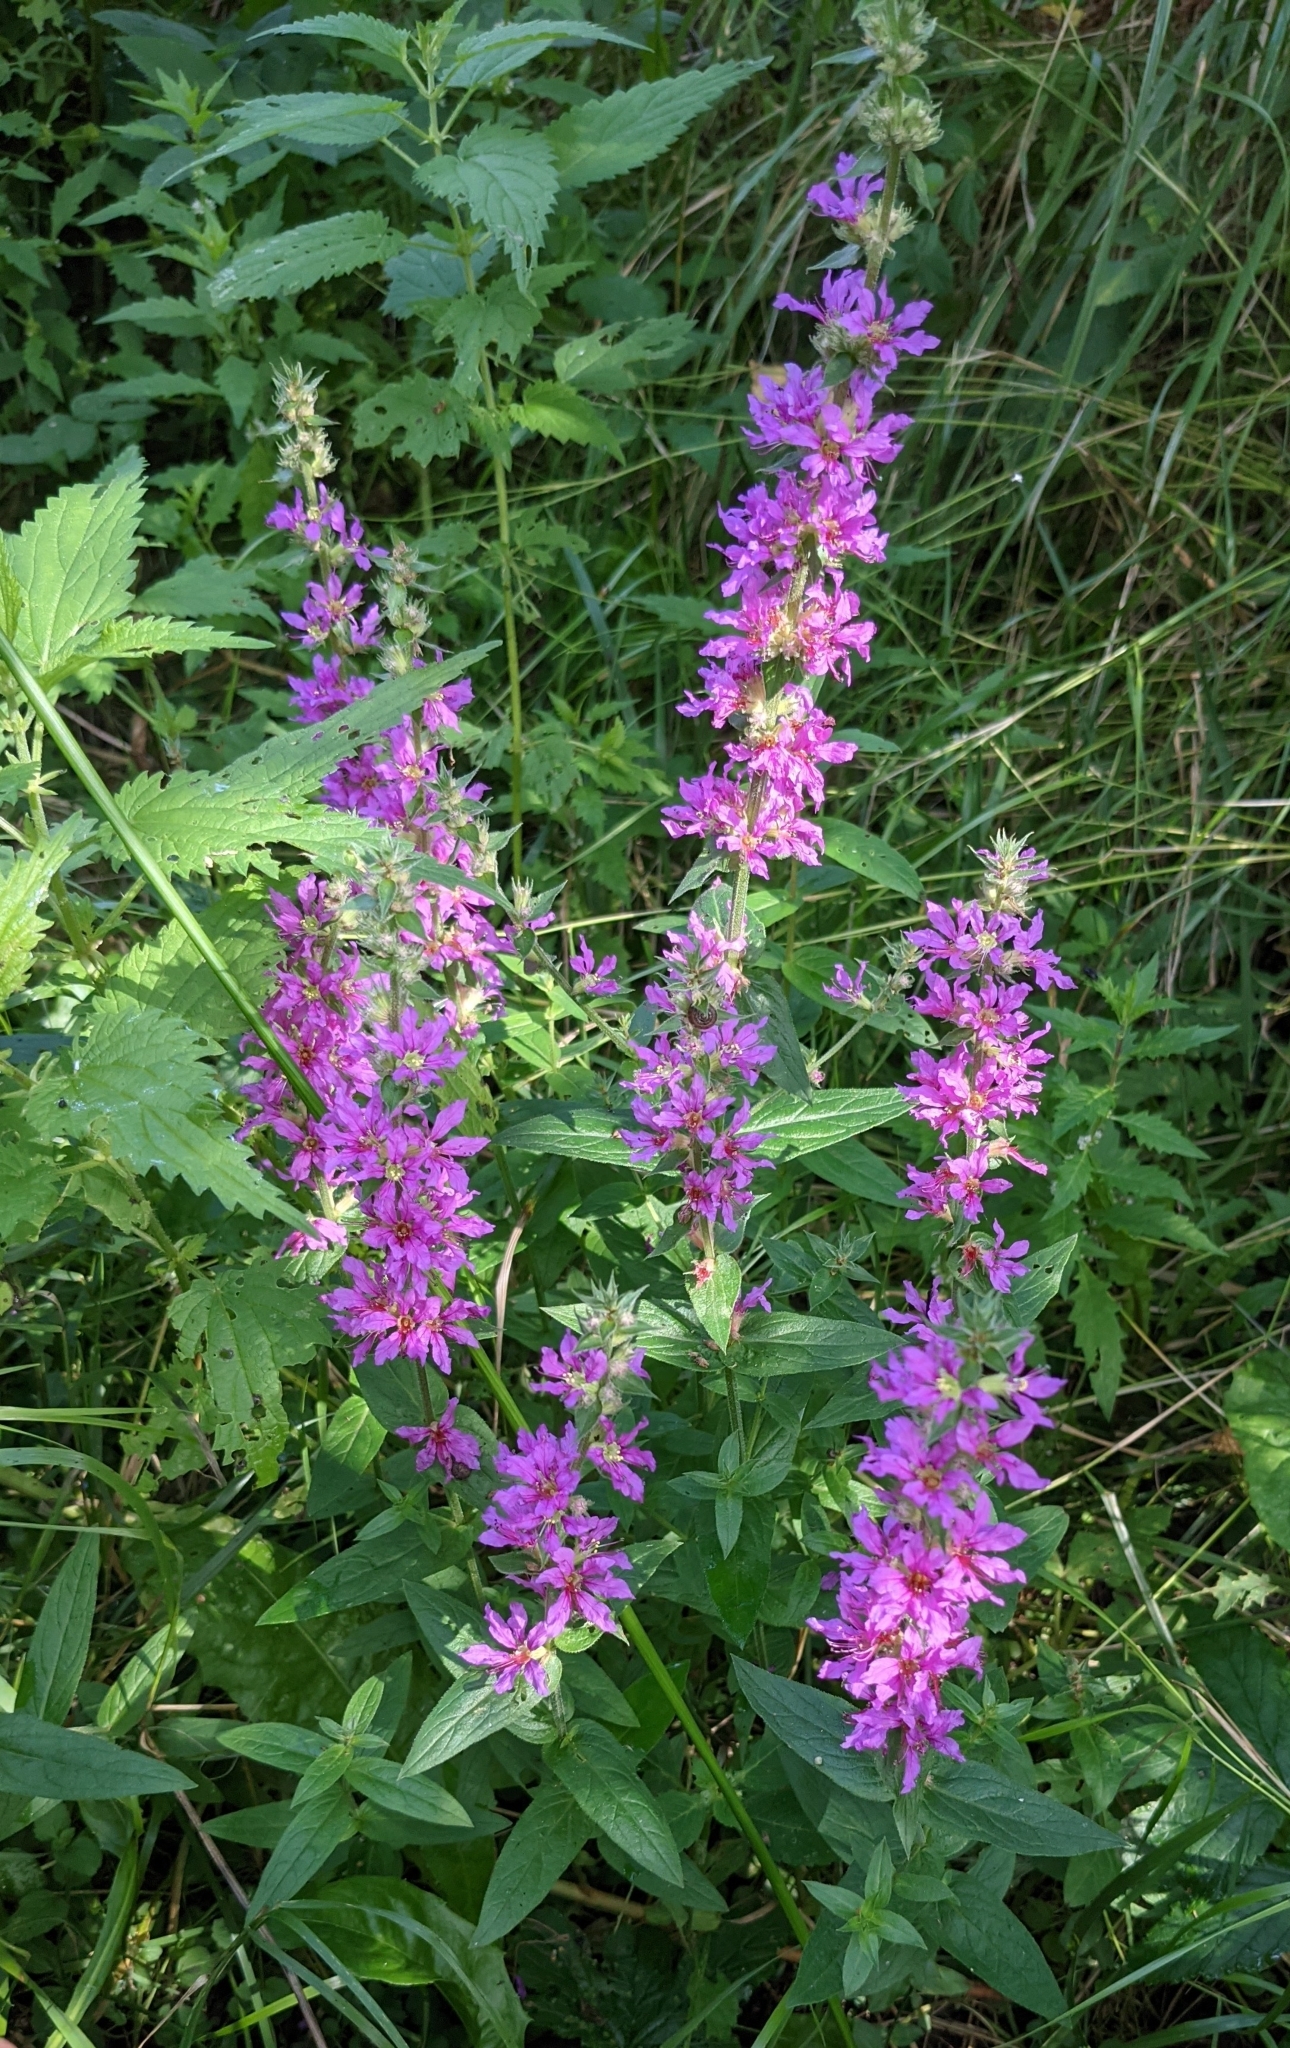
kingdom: Plantae
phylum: Tracheophyta
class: Magnoliopsida
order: Myrtales
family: Lythraceae
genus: Lythrum
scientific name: Lythrum salicaria
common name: Purple loosestrife
